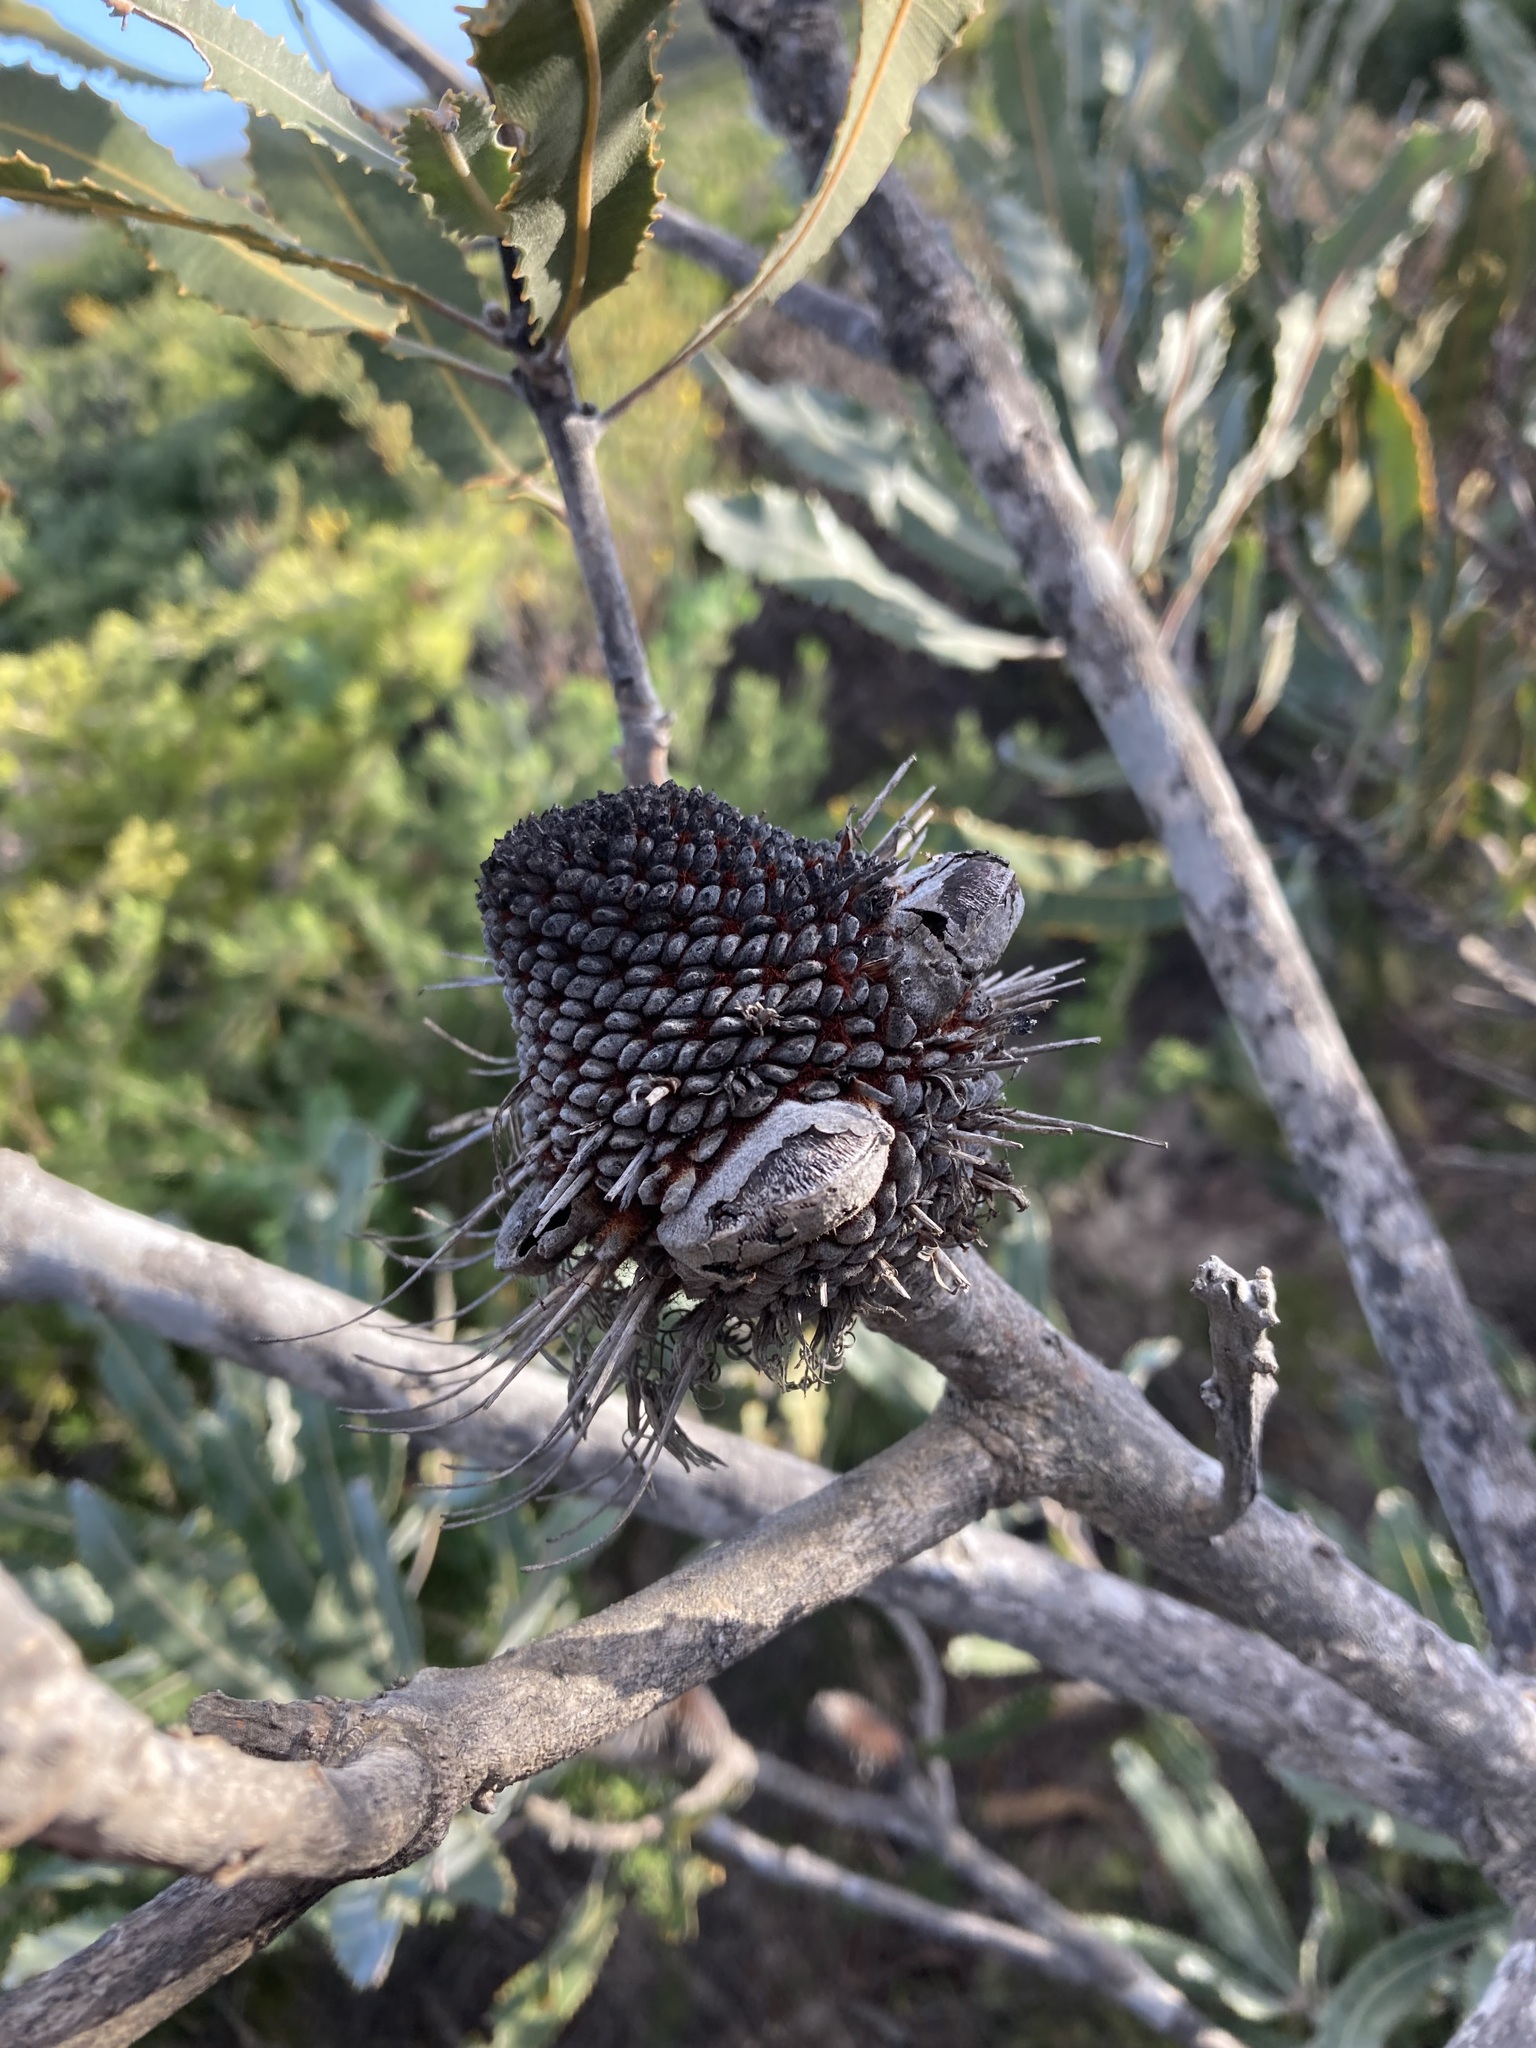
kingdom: Plantae
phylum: Tracheophyta
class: Magnoliopsida
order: Proteales
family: Proteaceae
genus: Banksia
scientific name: Banksia menziesii
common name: Menzie's banksia
